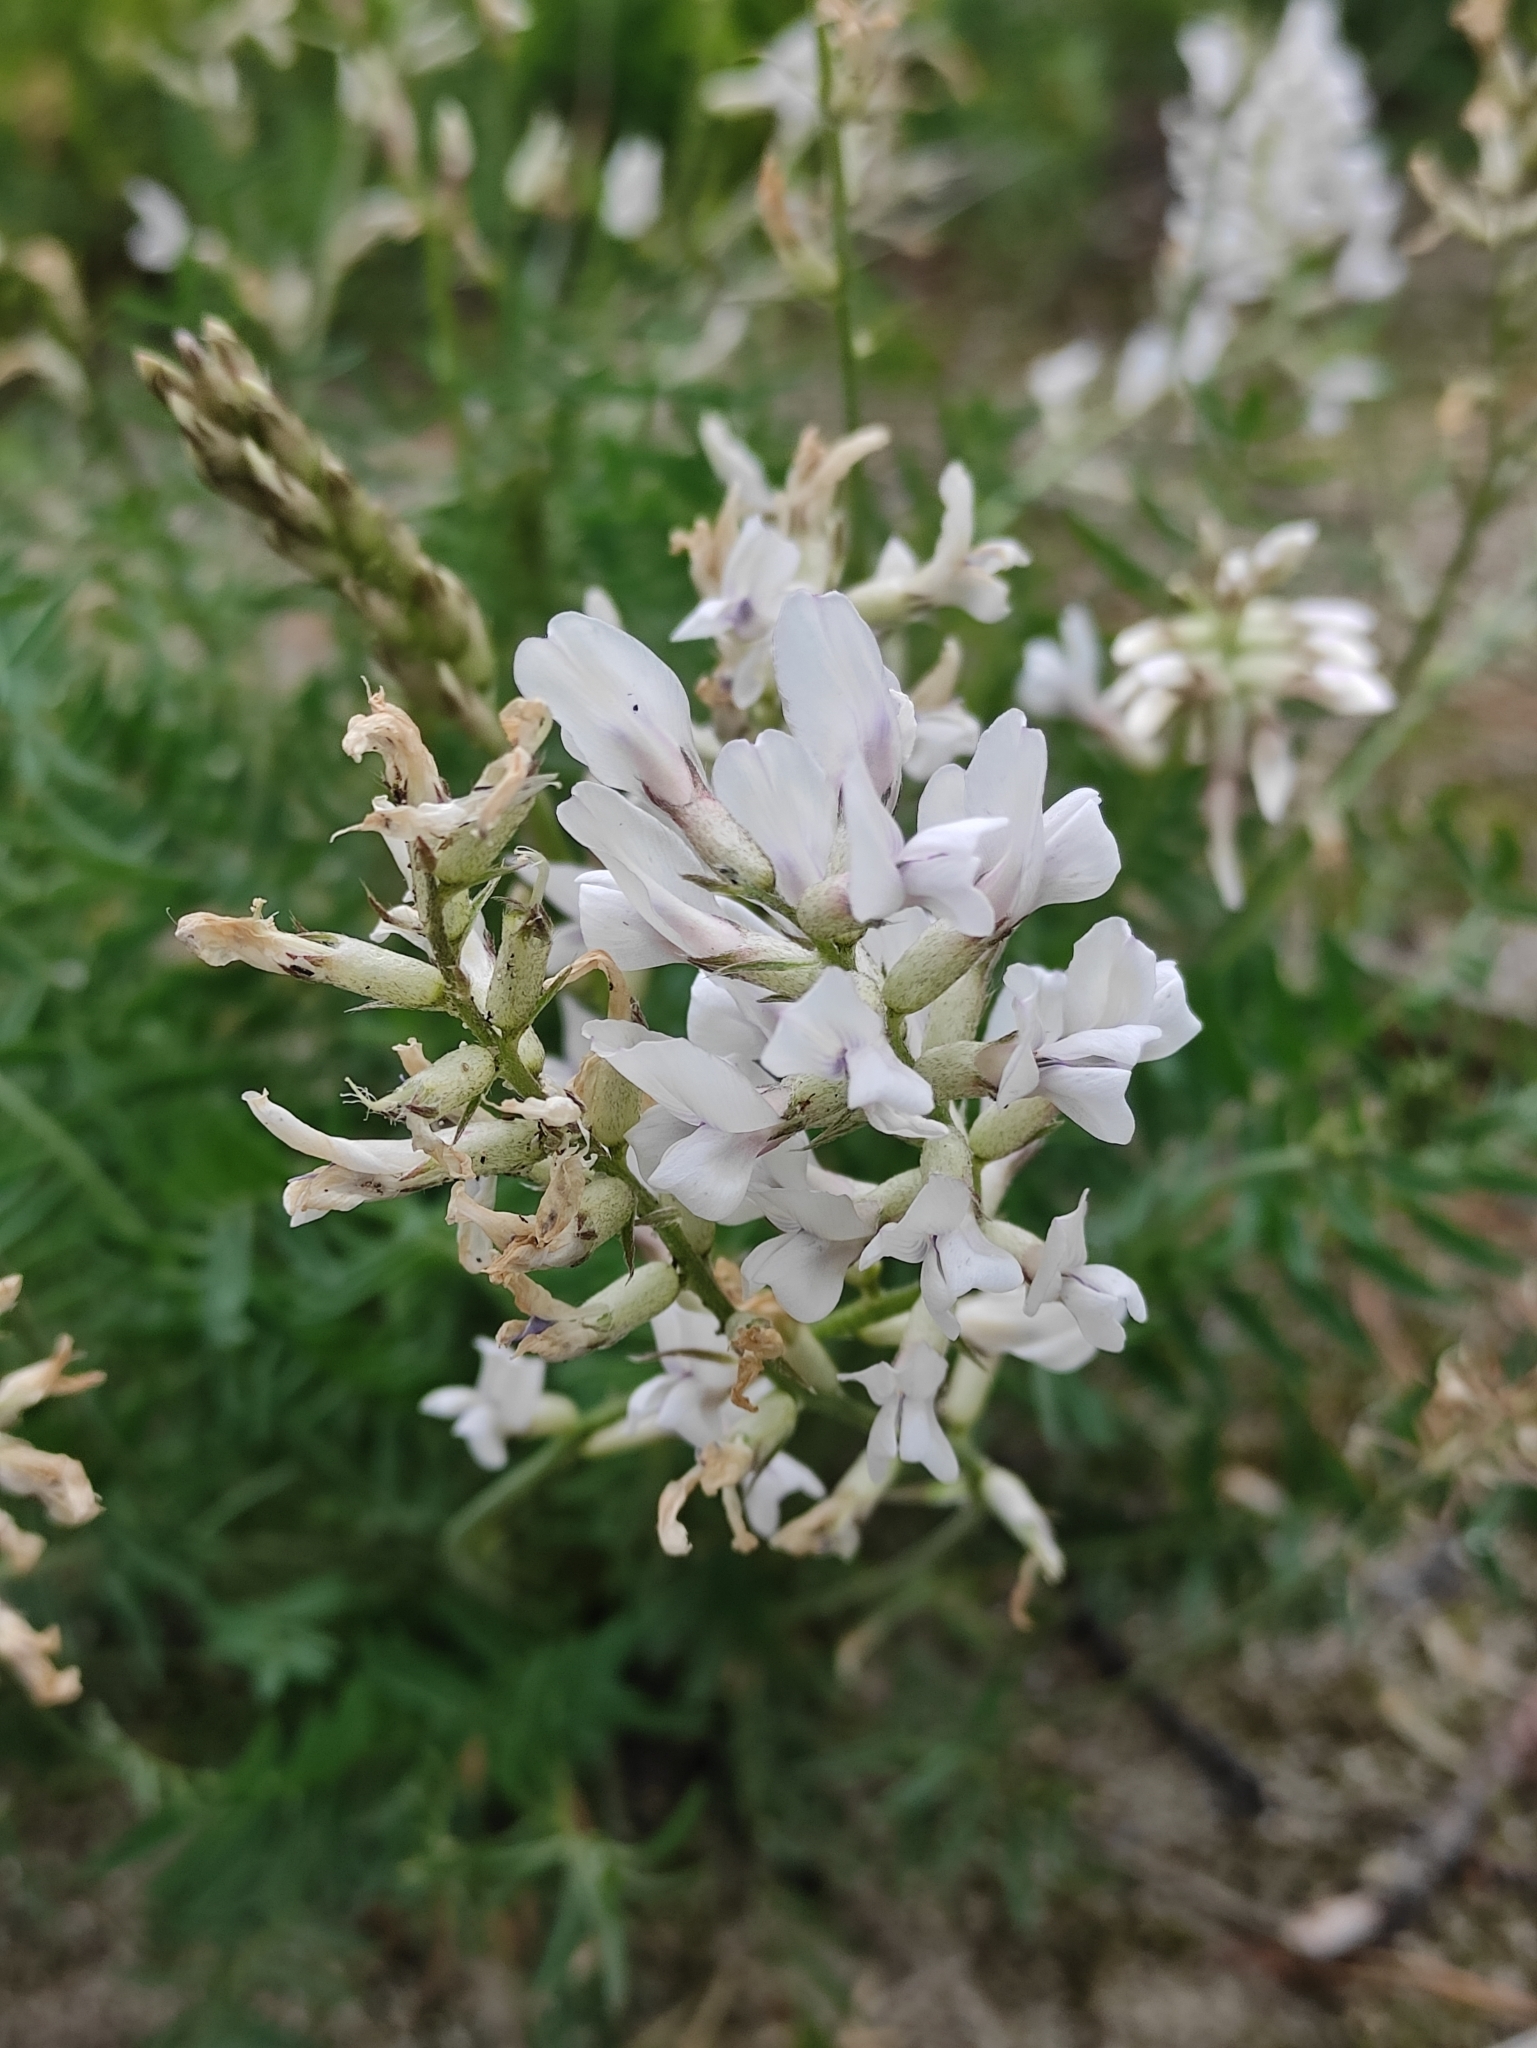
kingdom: Plantae
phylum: Tracheophyta
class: Magnoliopsida
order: Fabales
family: Fabaceae
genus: Oxytropis
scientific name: Oxytropis longirostra
